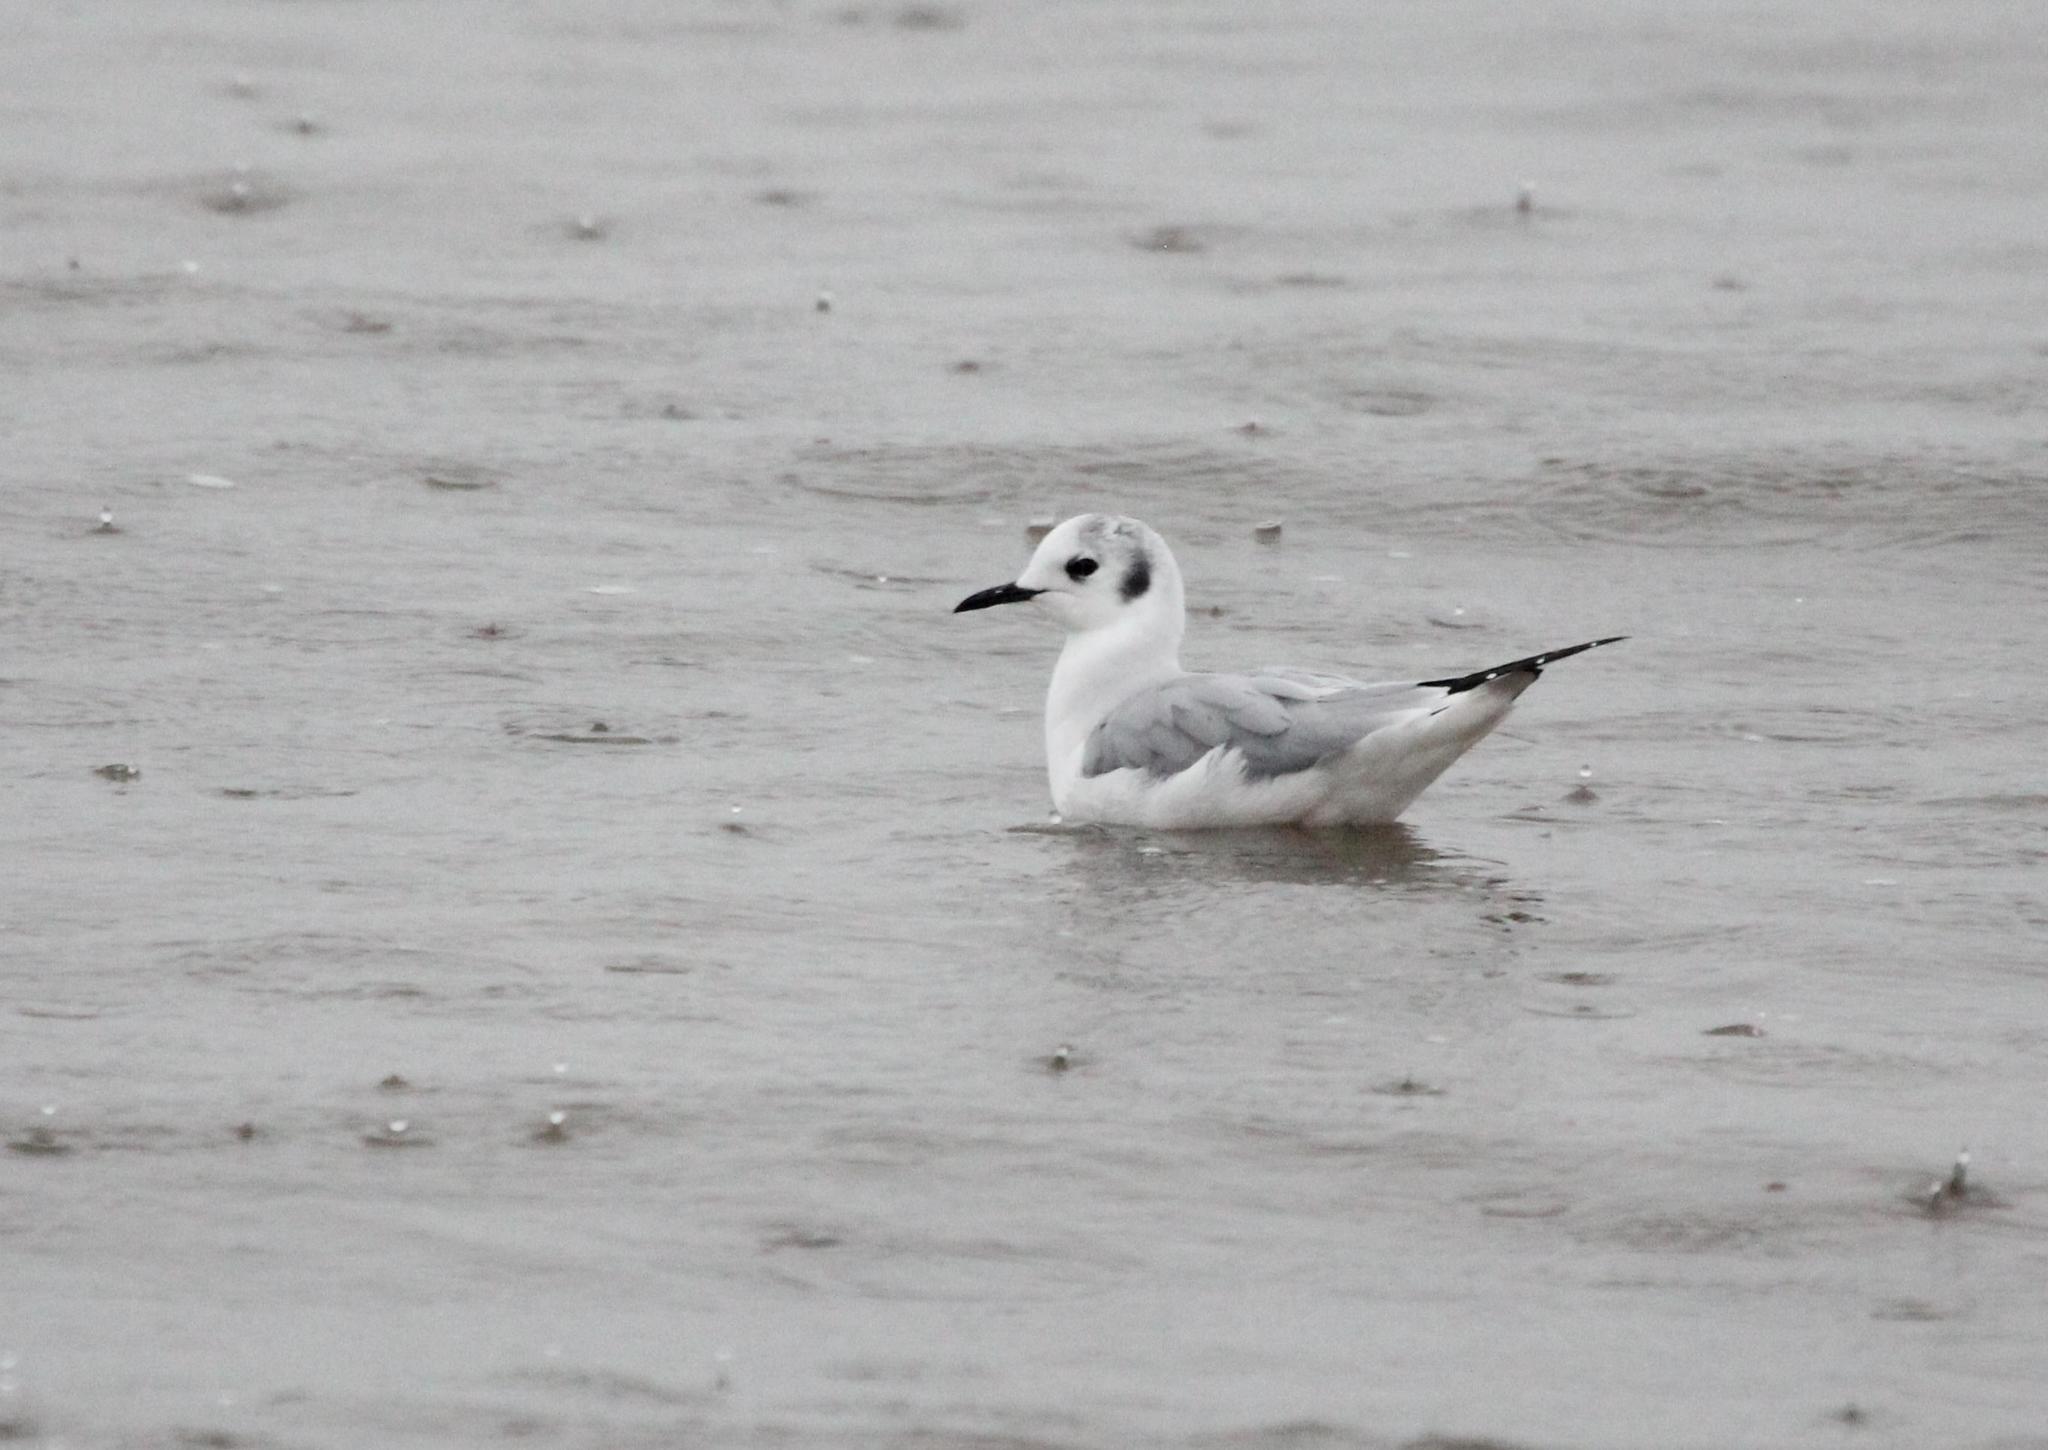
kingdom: Animalia
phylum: Chordata
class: Aves
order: Charadriiformes
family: Laridae
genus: Chroicocephalus
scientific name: Chroicocephalus philadelphia
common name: Bonaparte's gull
